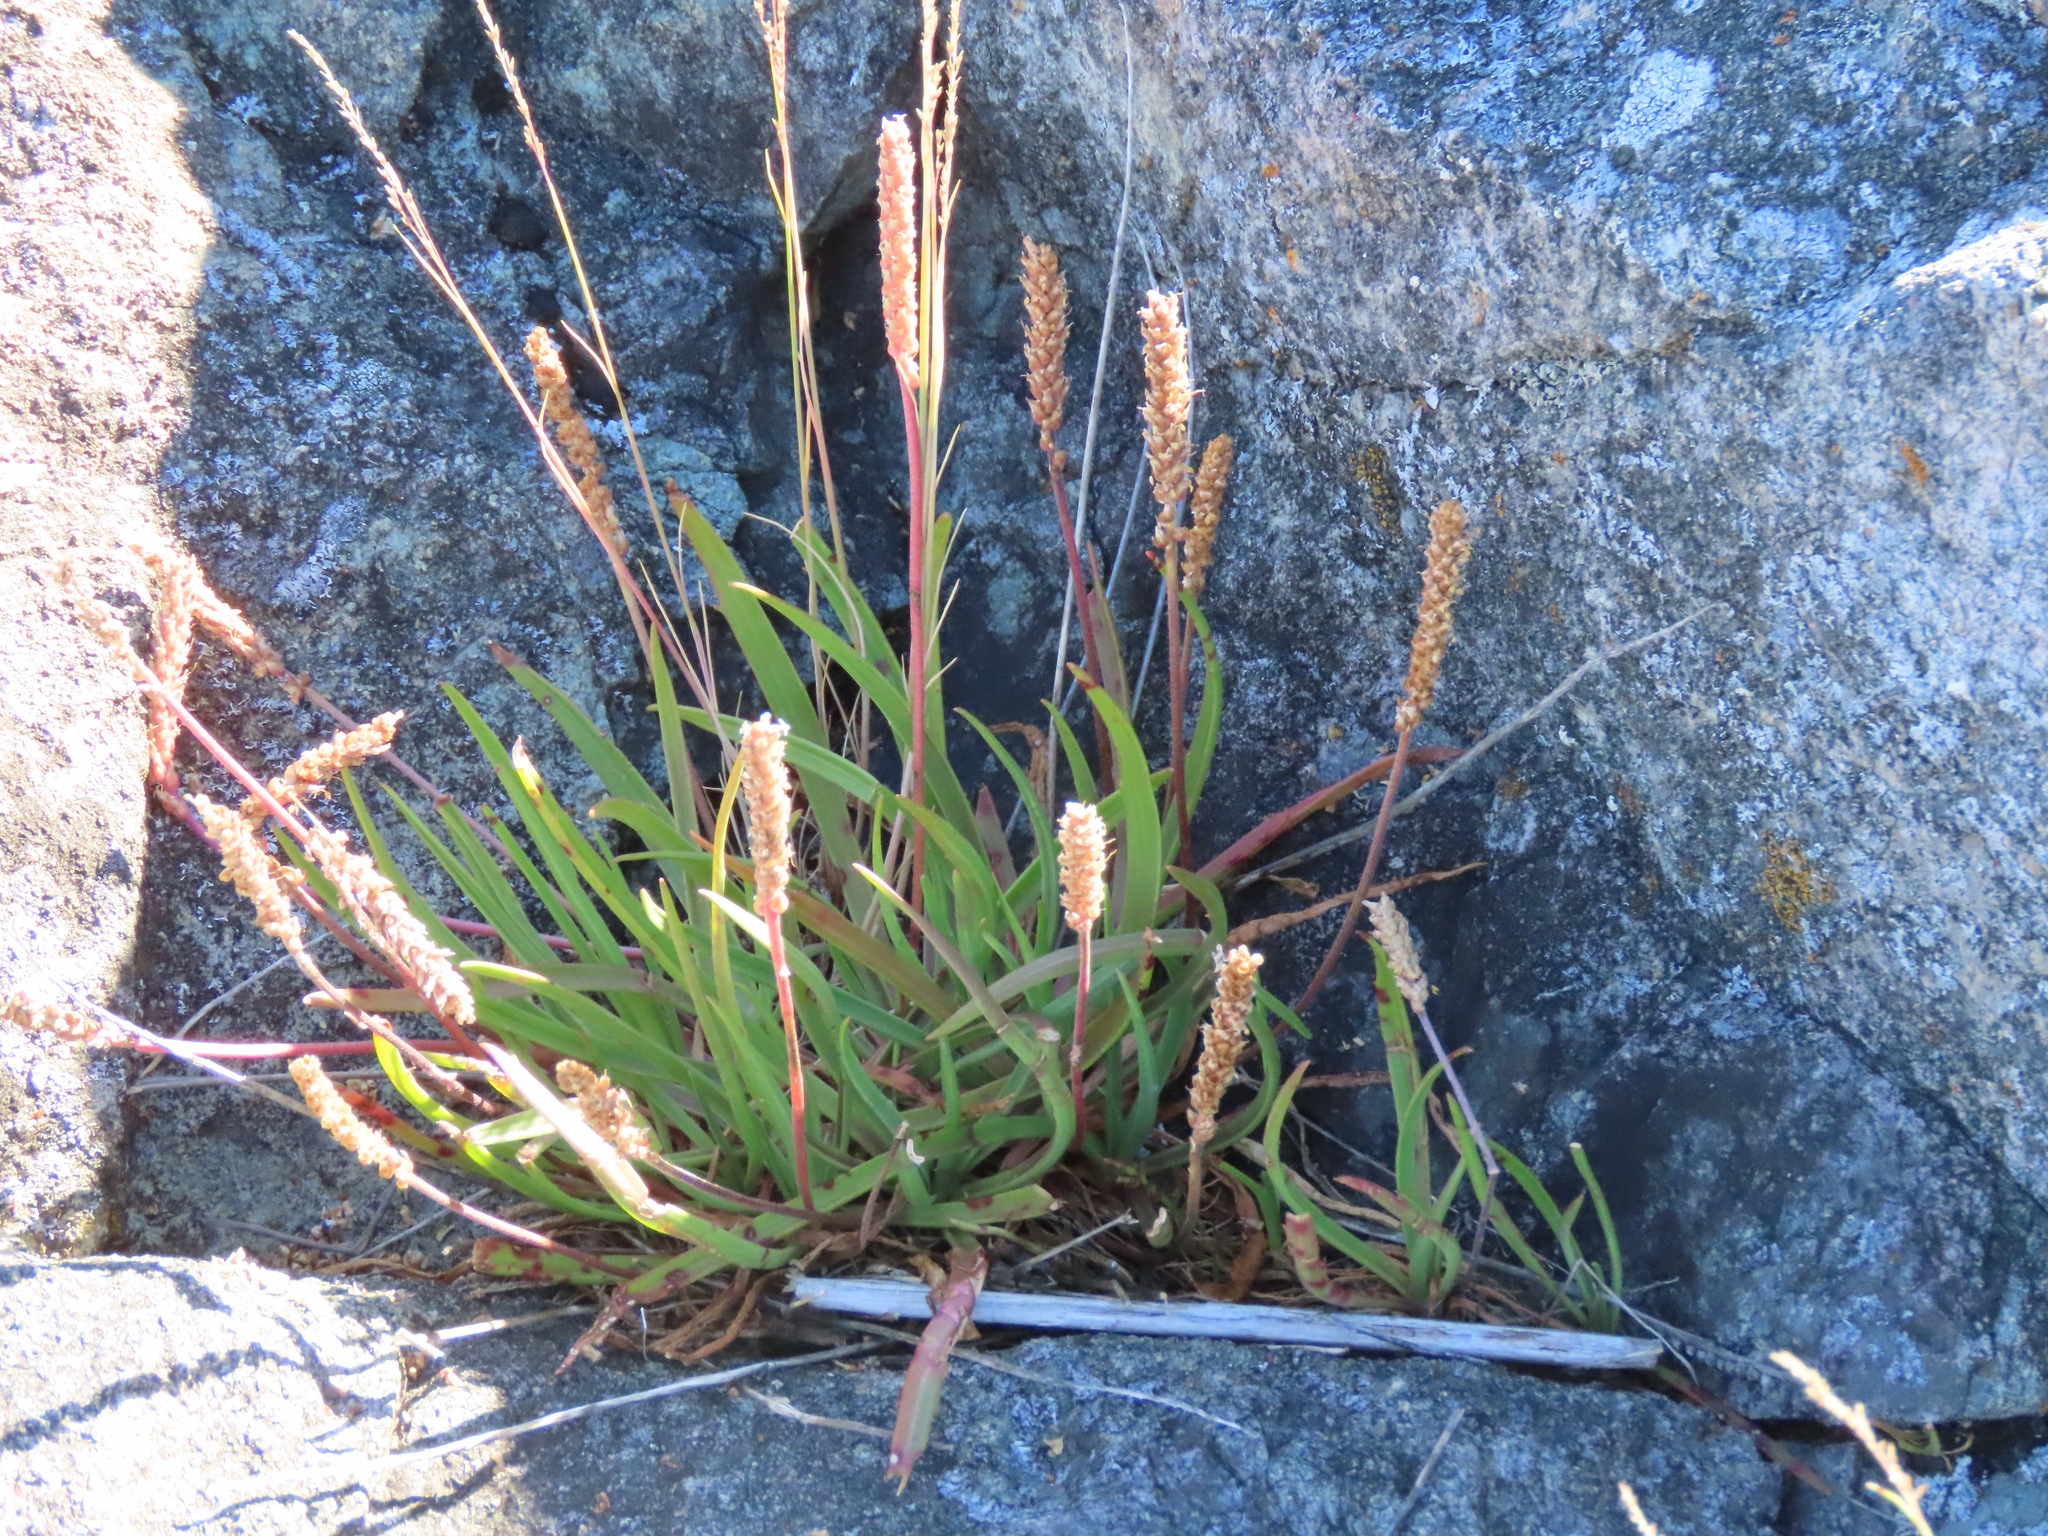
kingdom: Plantae
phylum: Tracheophyta
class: Magnoliopsida
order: Lamiales
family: Plantaginaceae
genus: Plantago
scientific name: Plantago maritima
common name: Sea plantain
